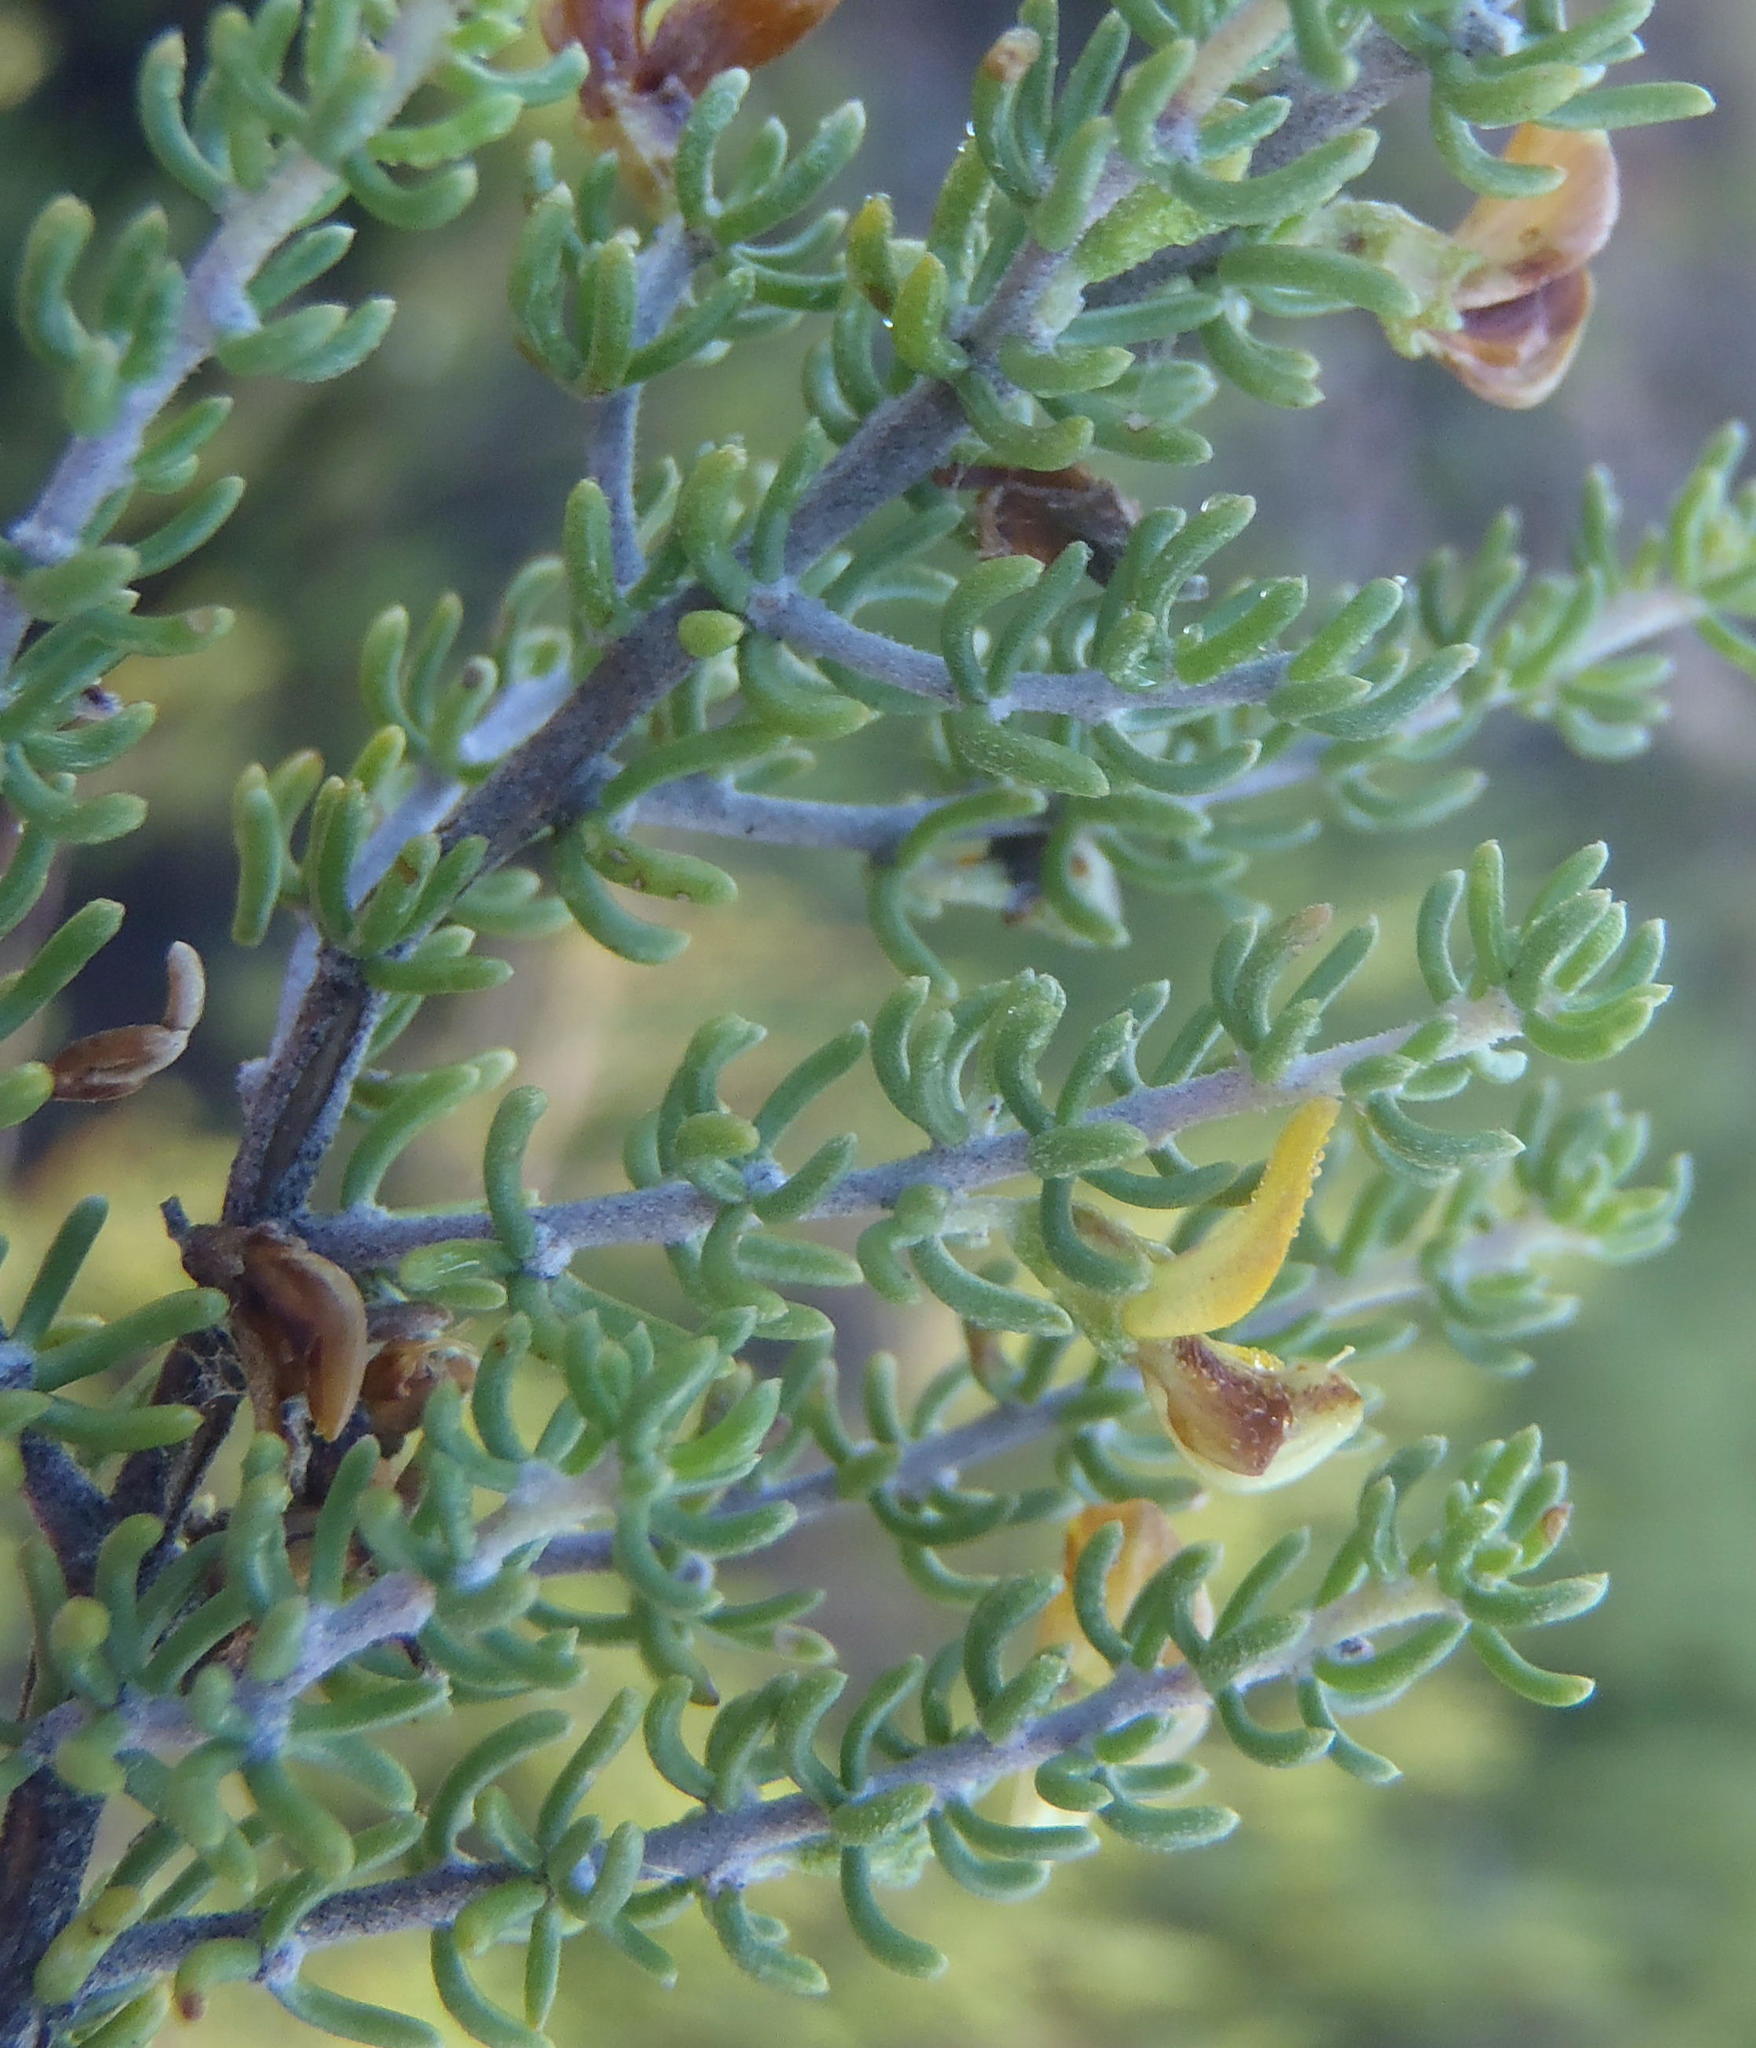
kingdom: Plantae
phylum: Tracheophyta
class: Magnoliopsida
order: Fabales
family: Fabaceae
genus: Aspalathus
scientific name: Aspalathus subtingens
